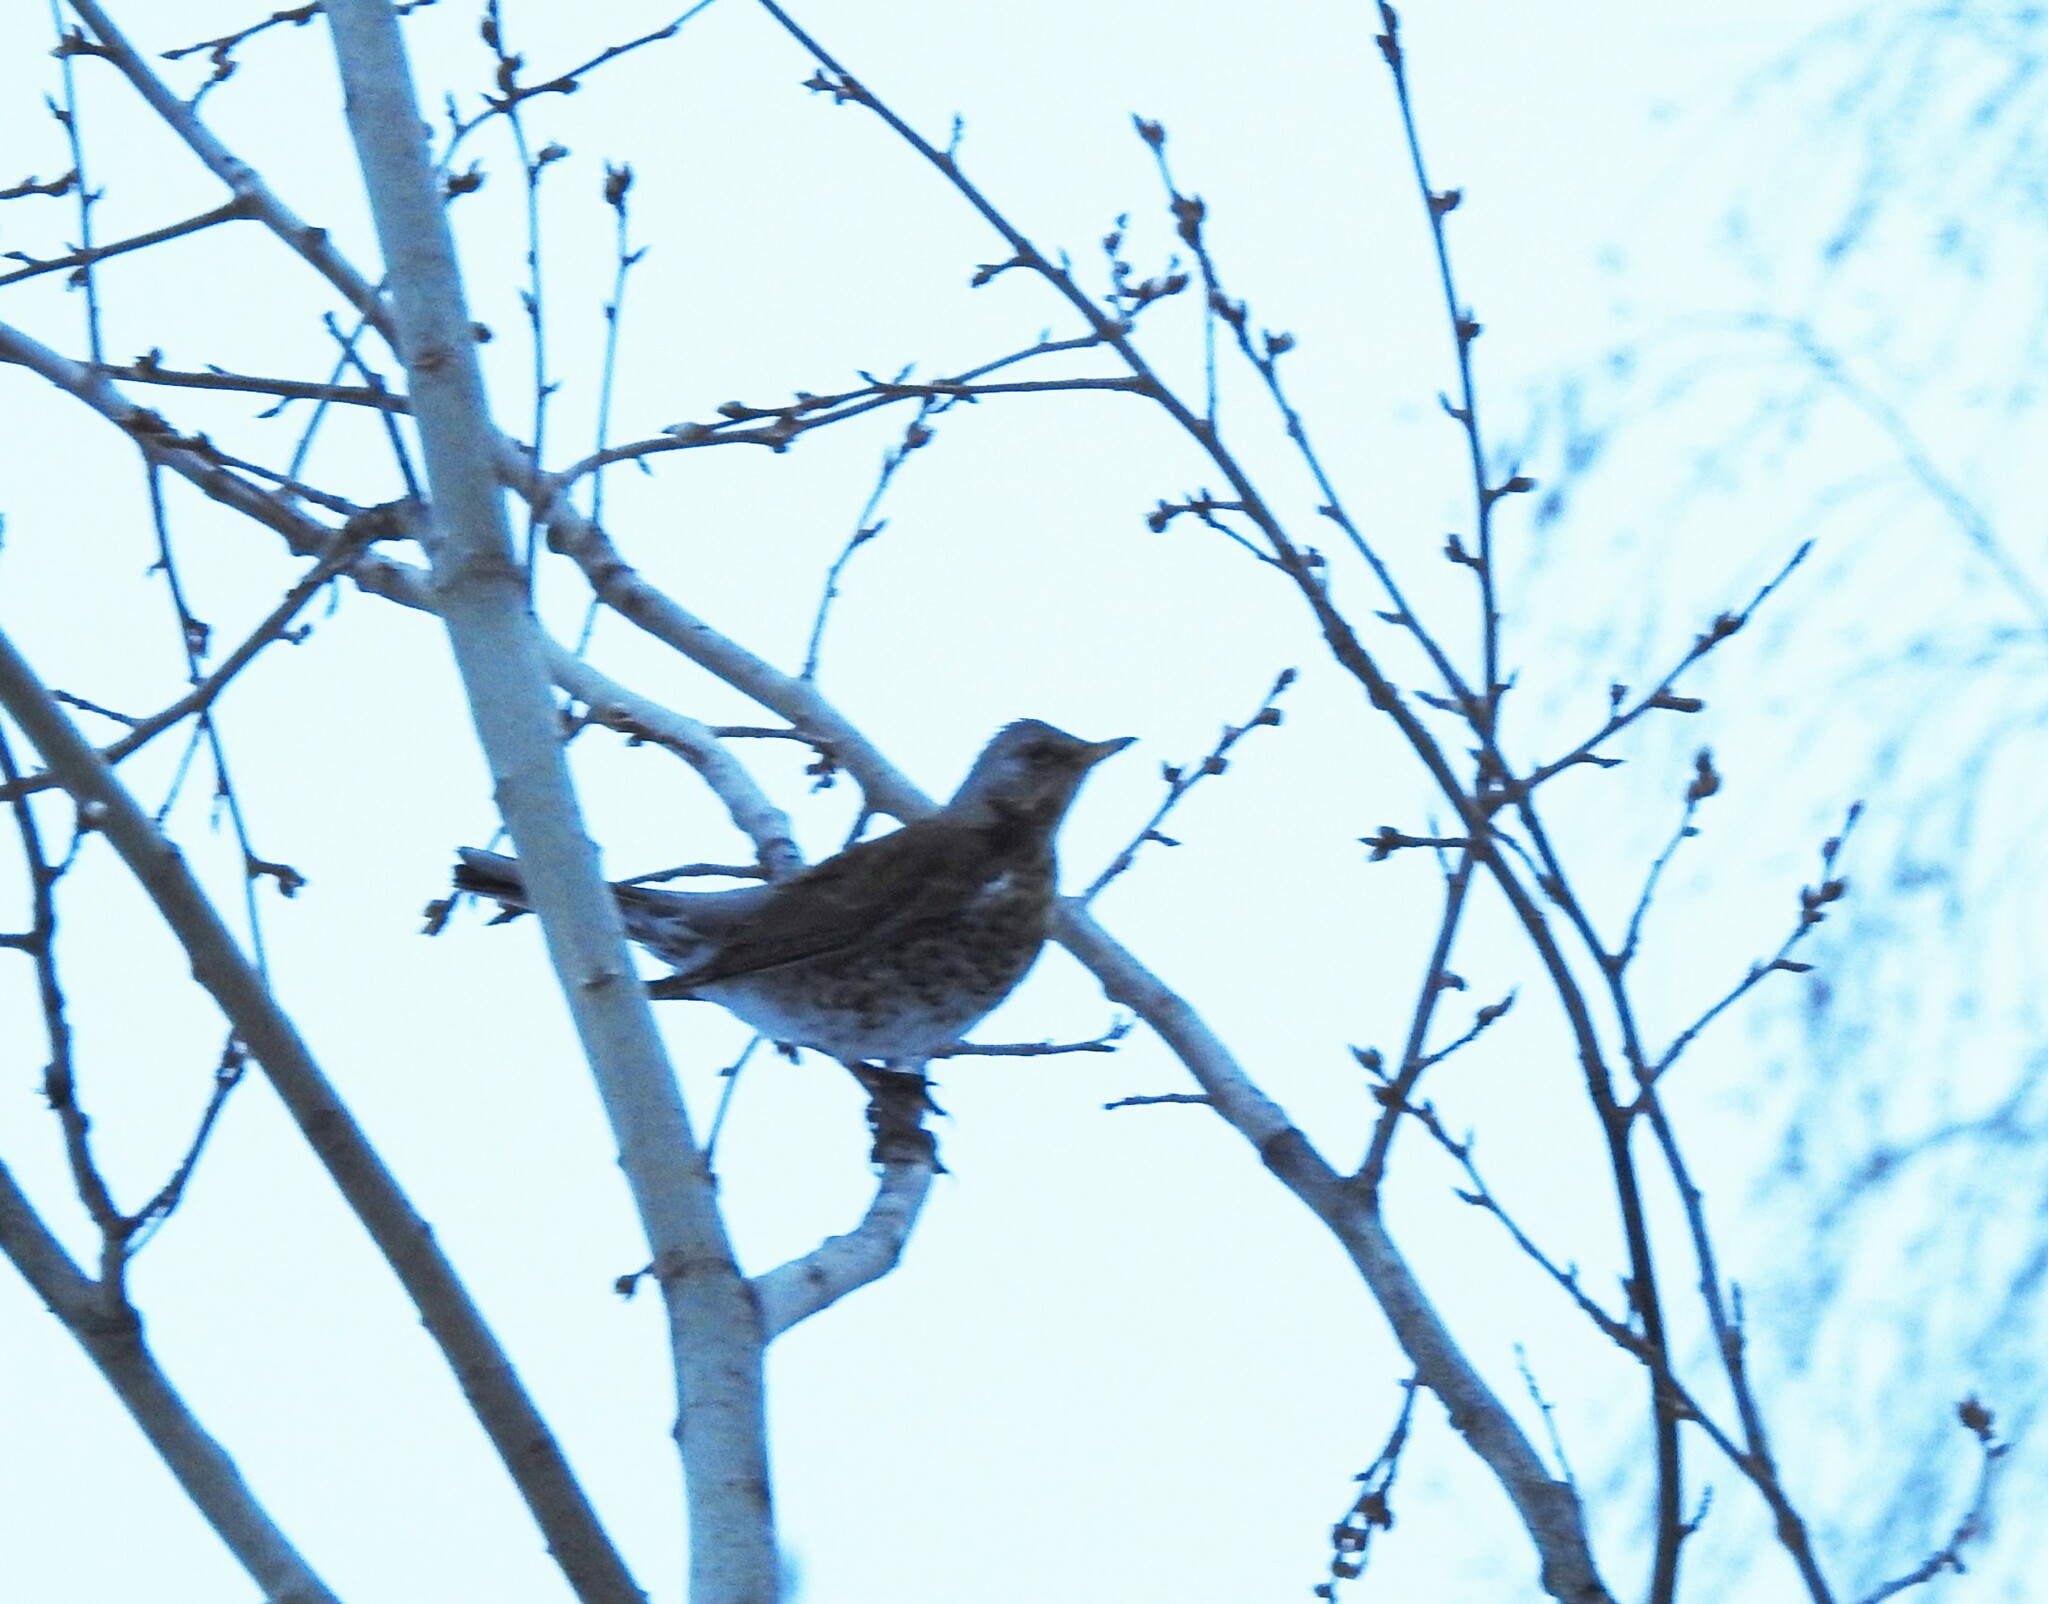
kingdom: Animalia
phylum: Chordata
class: Aves
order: Passeriformes
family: Turdidae
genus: Turdus
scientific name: Turdus pilaris
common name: Fieldfare
